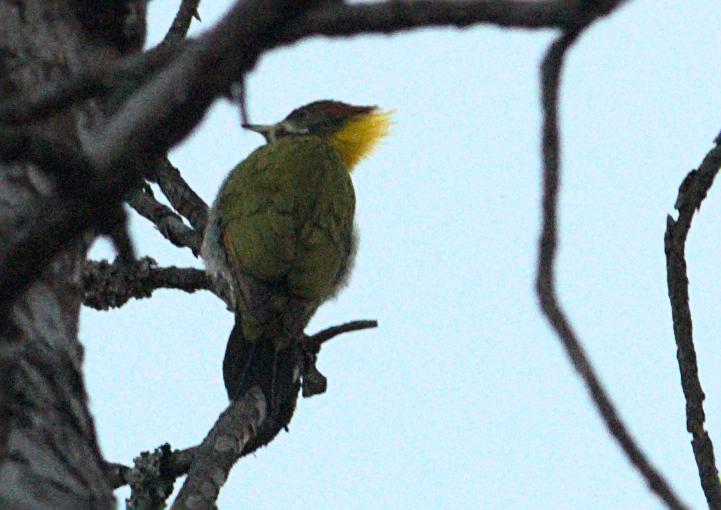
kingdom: Animalia
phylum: Chordata
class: Aves
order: Piciformes
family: Picidae
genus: Picus
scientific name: Picus chlorolophus
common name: Lesser yellownape
